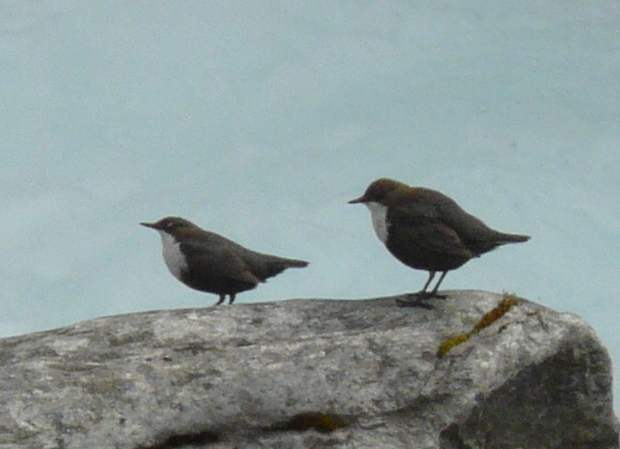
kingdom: Animalia
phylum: Chordata
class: Aves
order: Passeriformes
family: Cinclidae
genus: Cinclus
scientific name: Cinclus cinclus
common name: White-throated dipper
